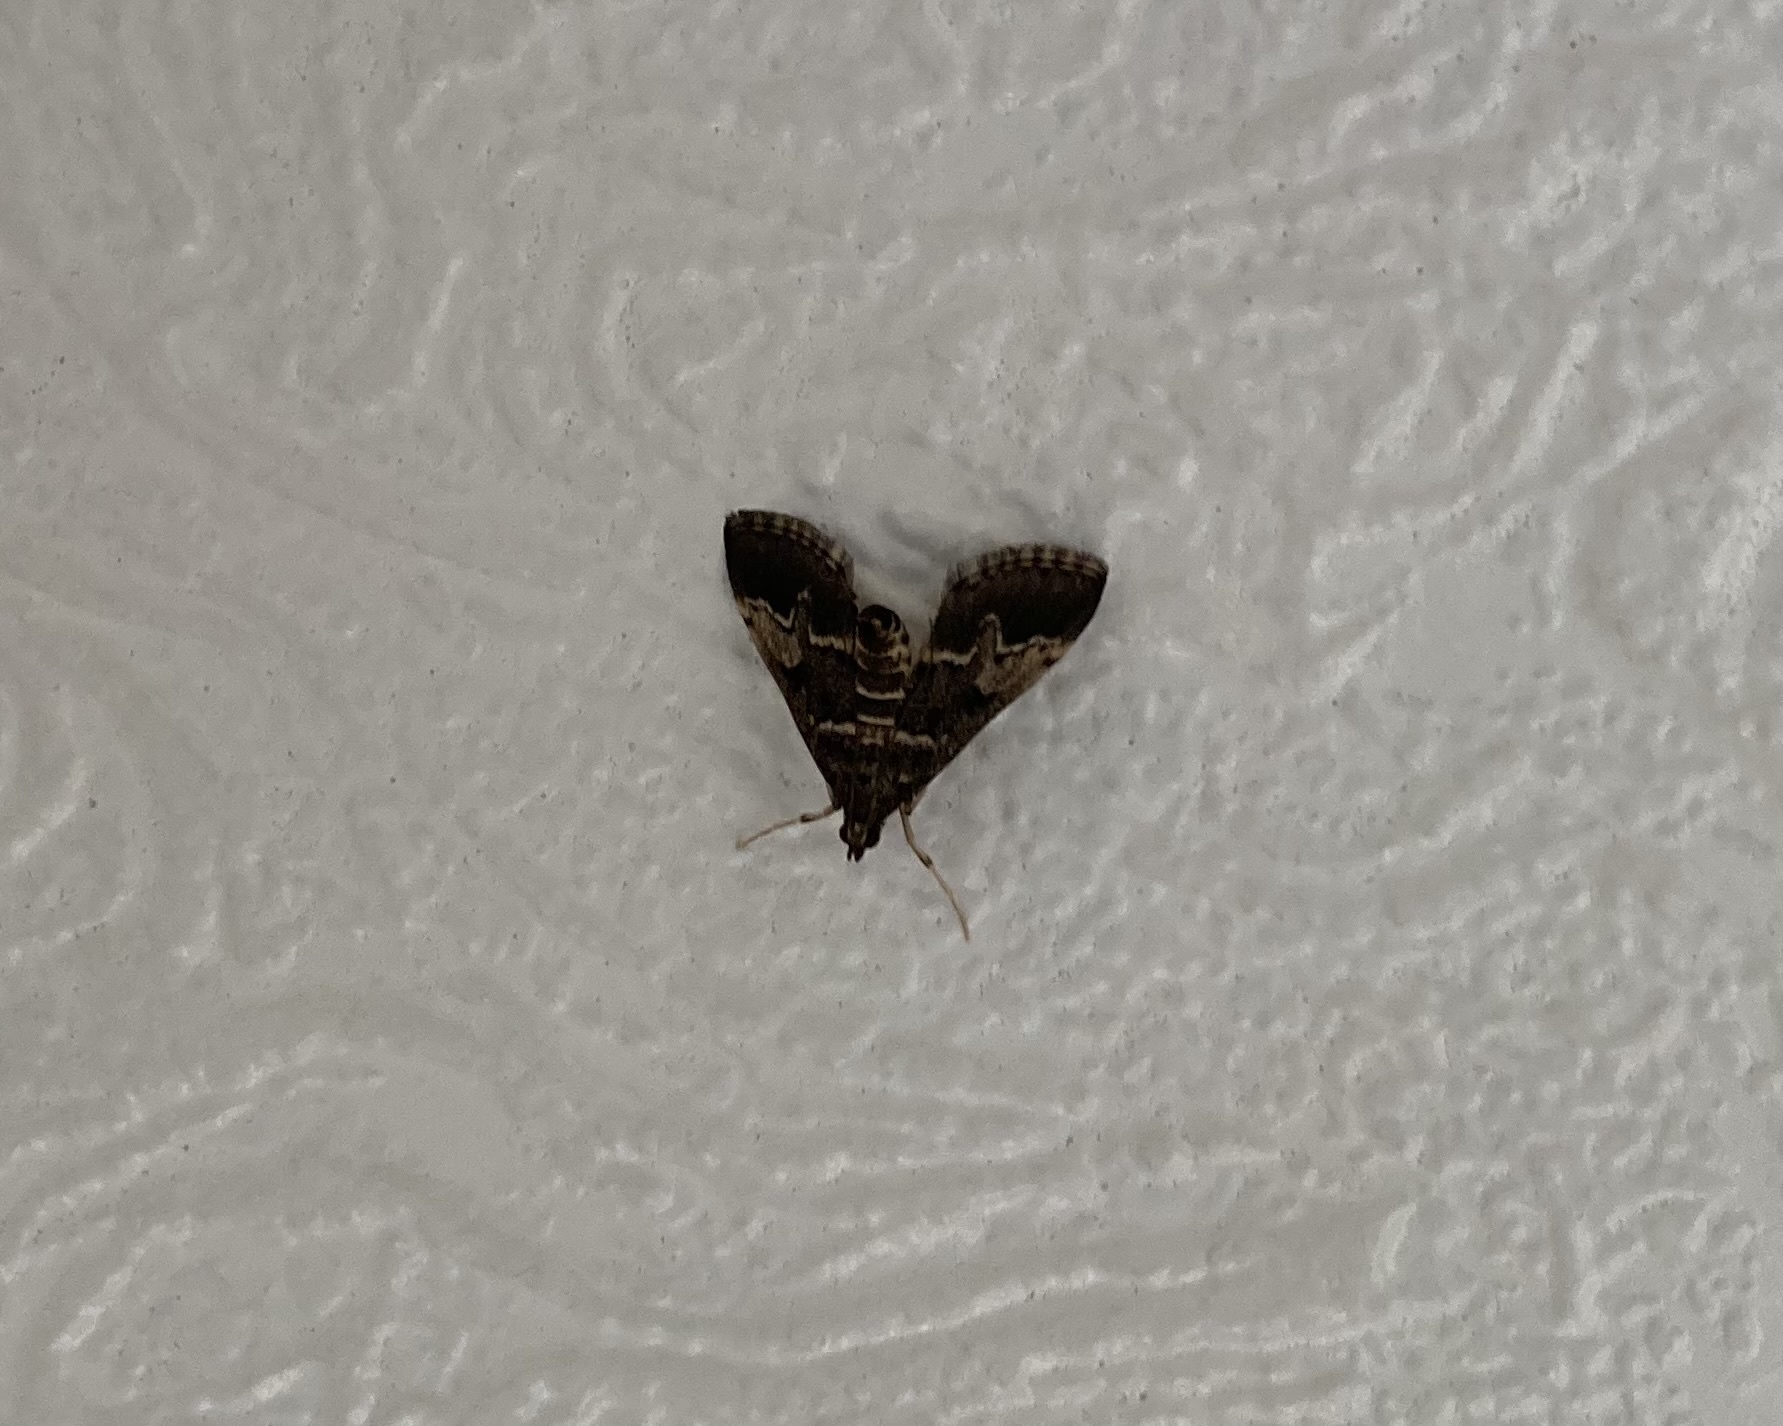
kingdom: Animalia
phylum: Arthropoda
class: Insecta
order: Lepidoptera
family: Crambidae
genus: Duponchelia
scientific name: Duponchelia fovealis
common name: Crambid moth
